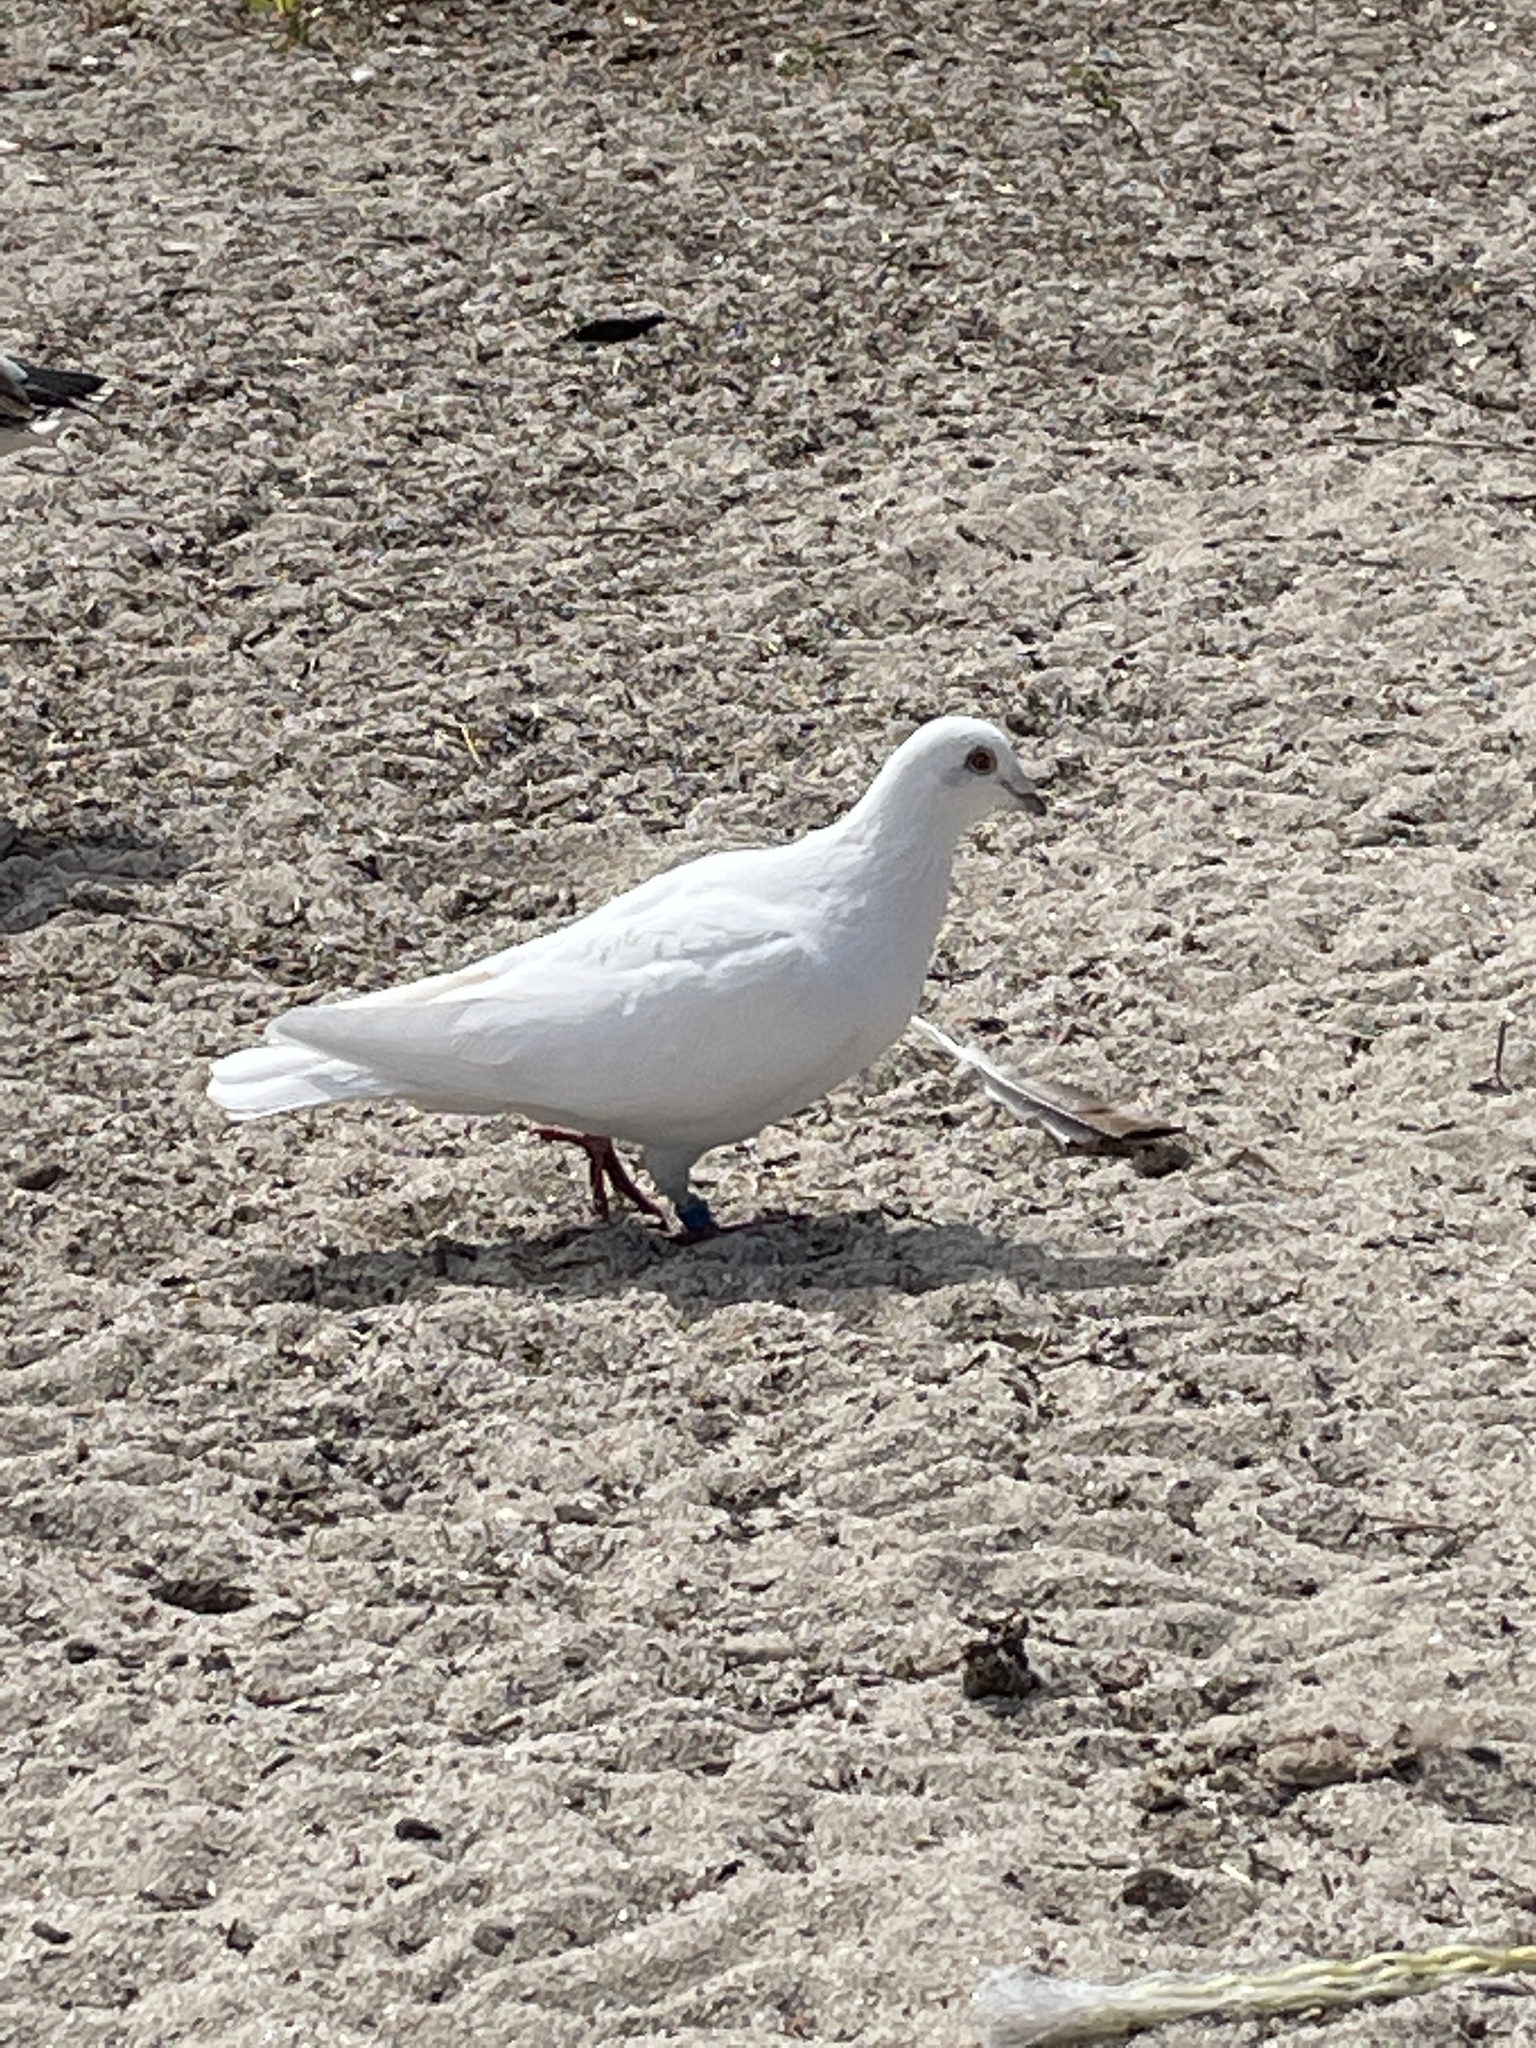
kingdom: Animalia
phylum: Chordata
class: Aves
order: Columbiformes
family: Columbidae
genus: Columba
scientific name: Columba livia
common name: Rock pigeon
